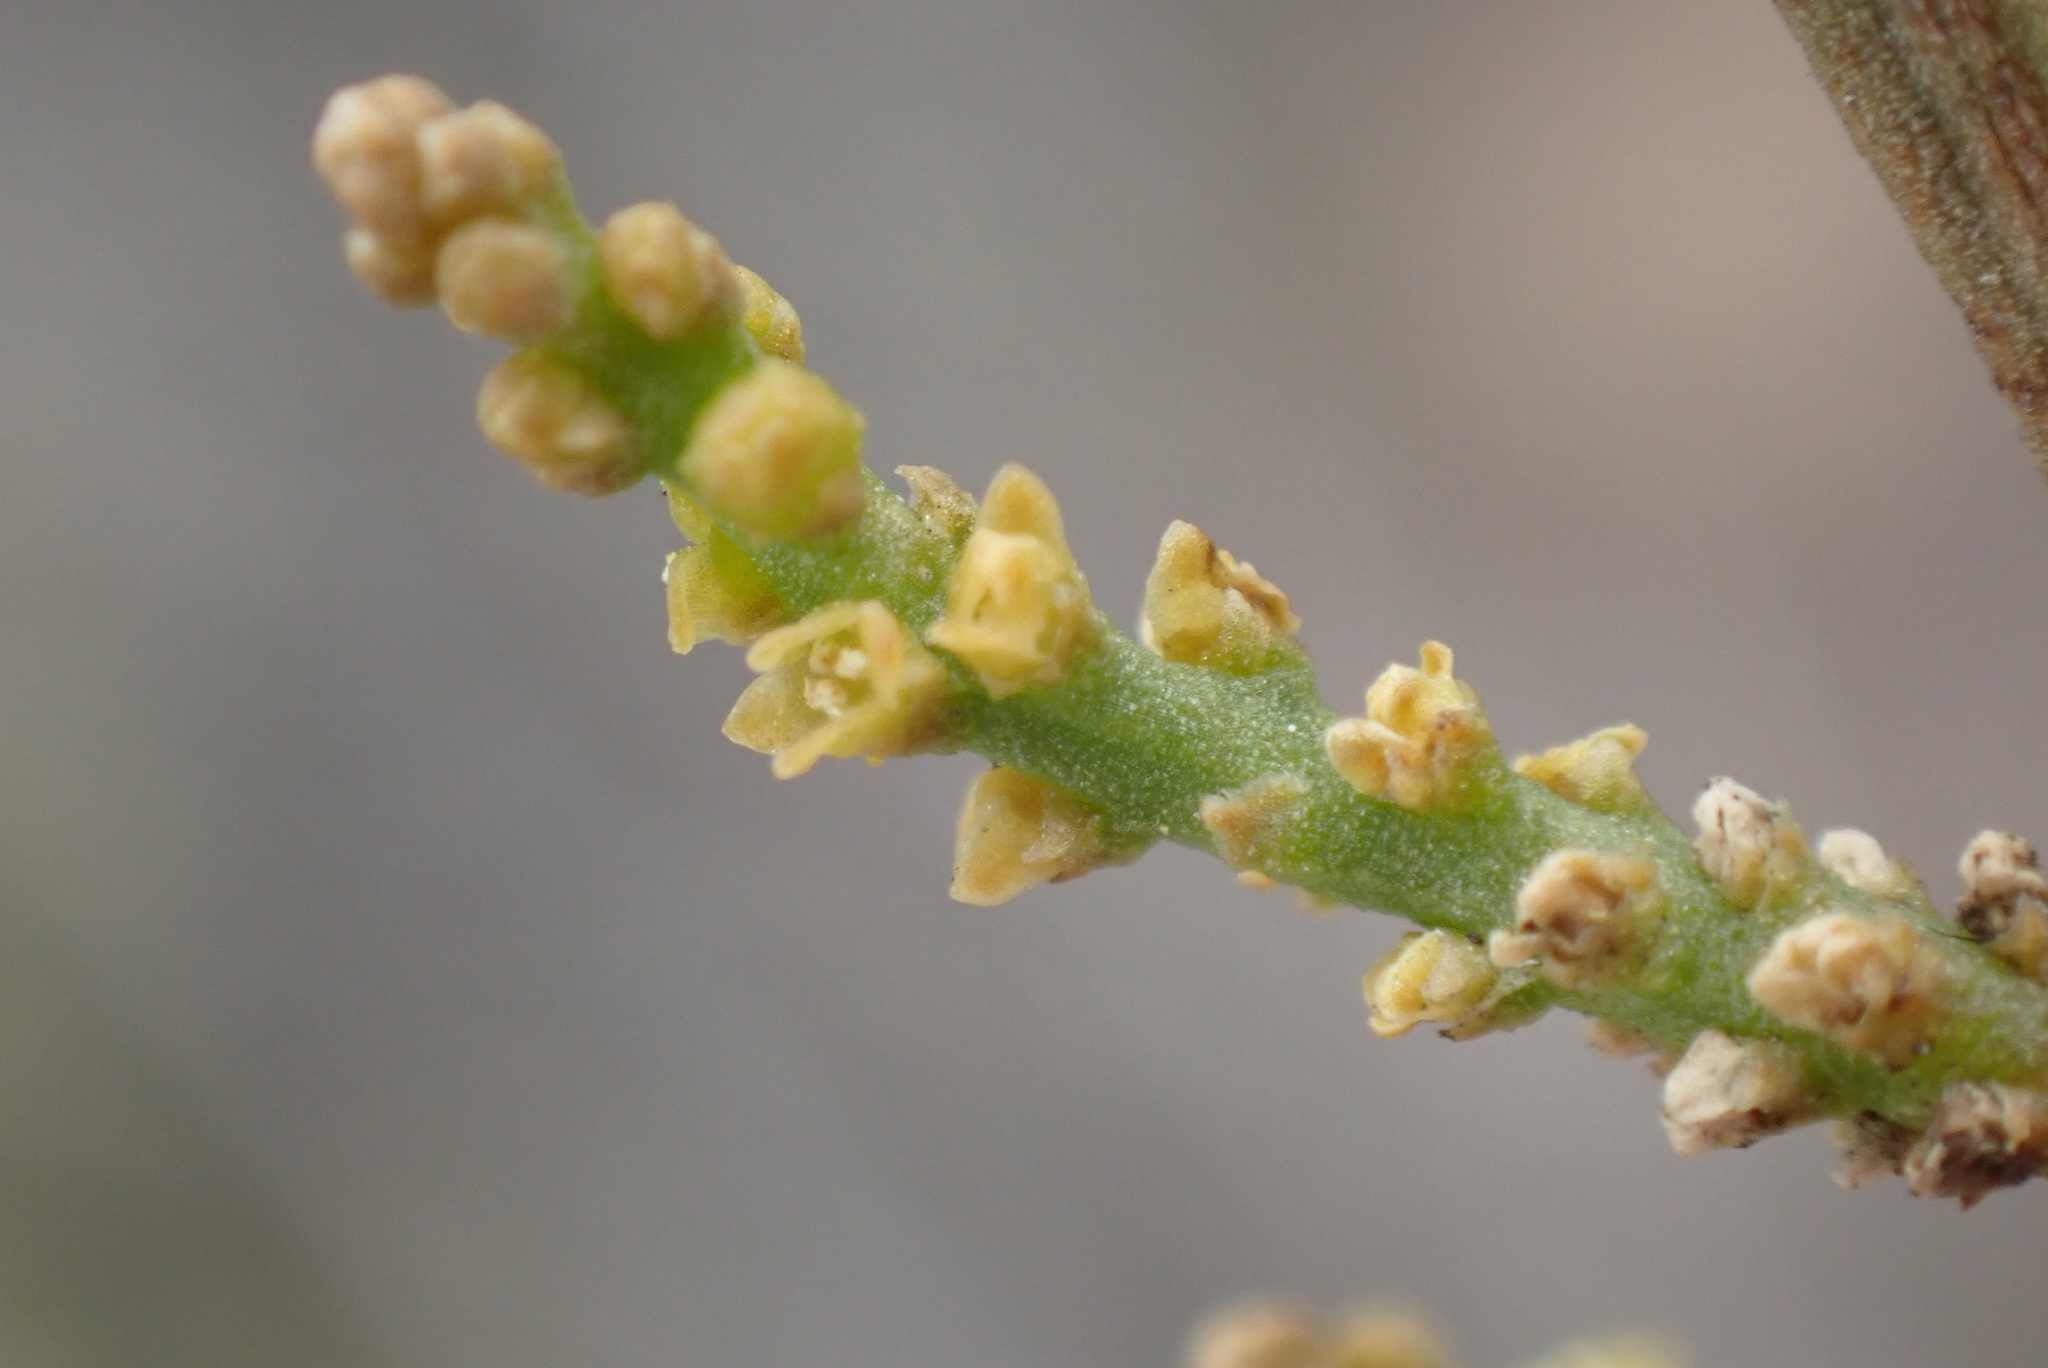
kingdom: Plantae
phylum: Tracheophyta
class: Magnoliopsida
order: Santalales
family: Viscaceae
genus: Viscum
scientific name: Viscum capense
